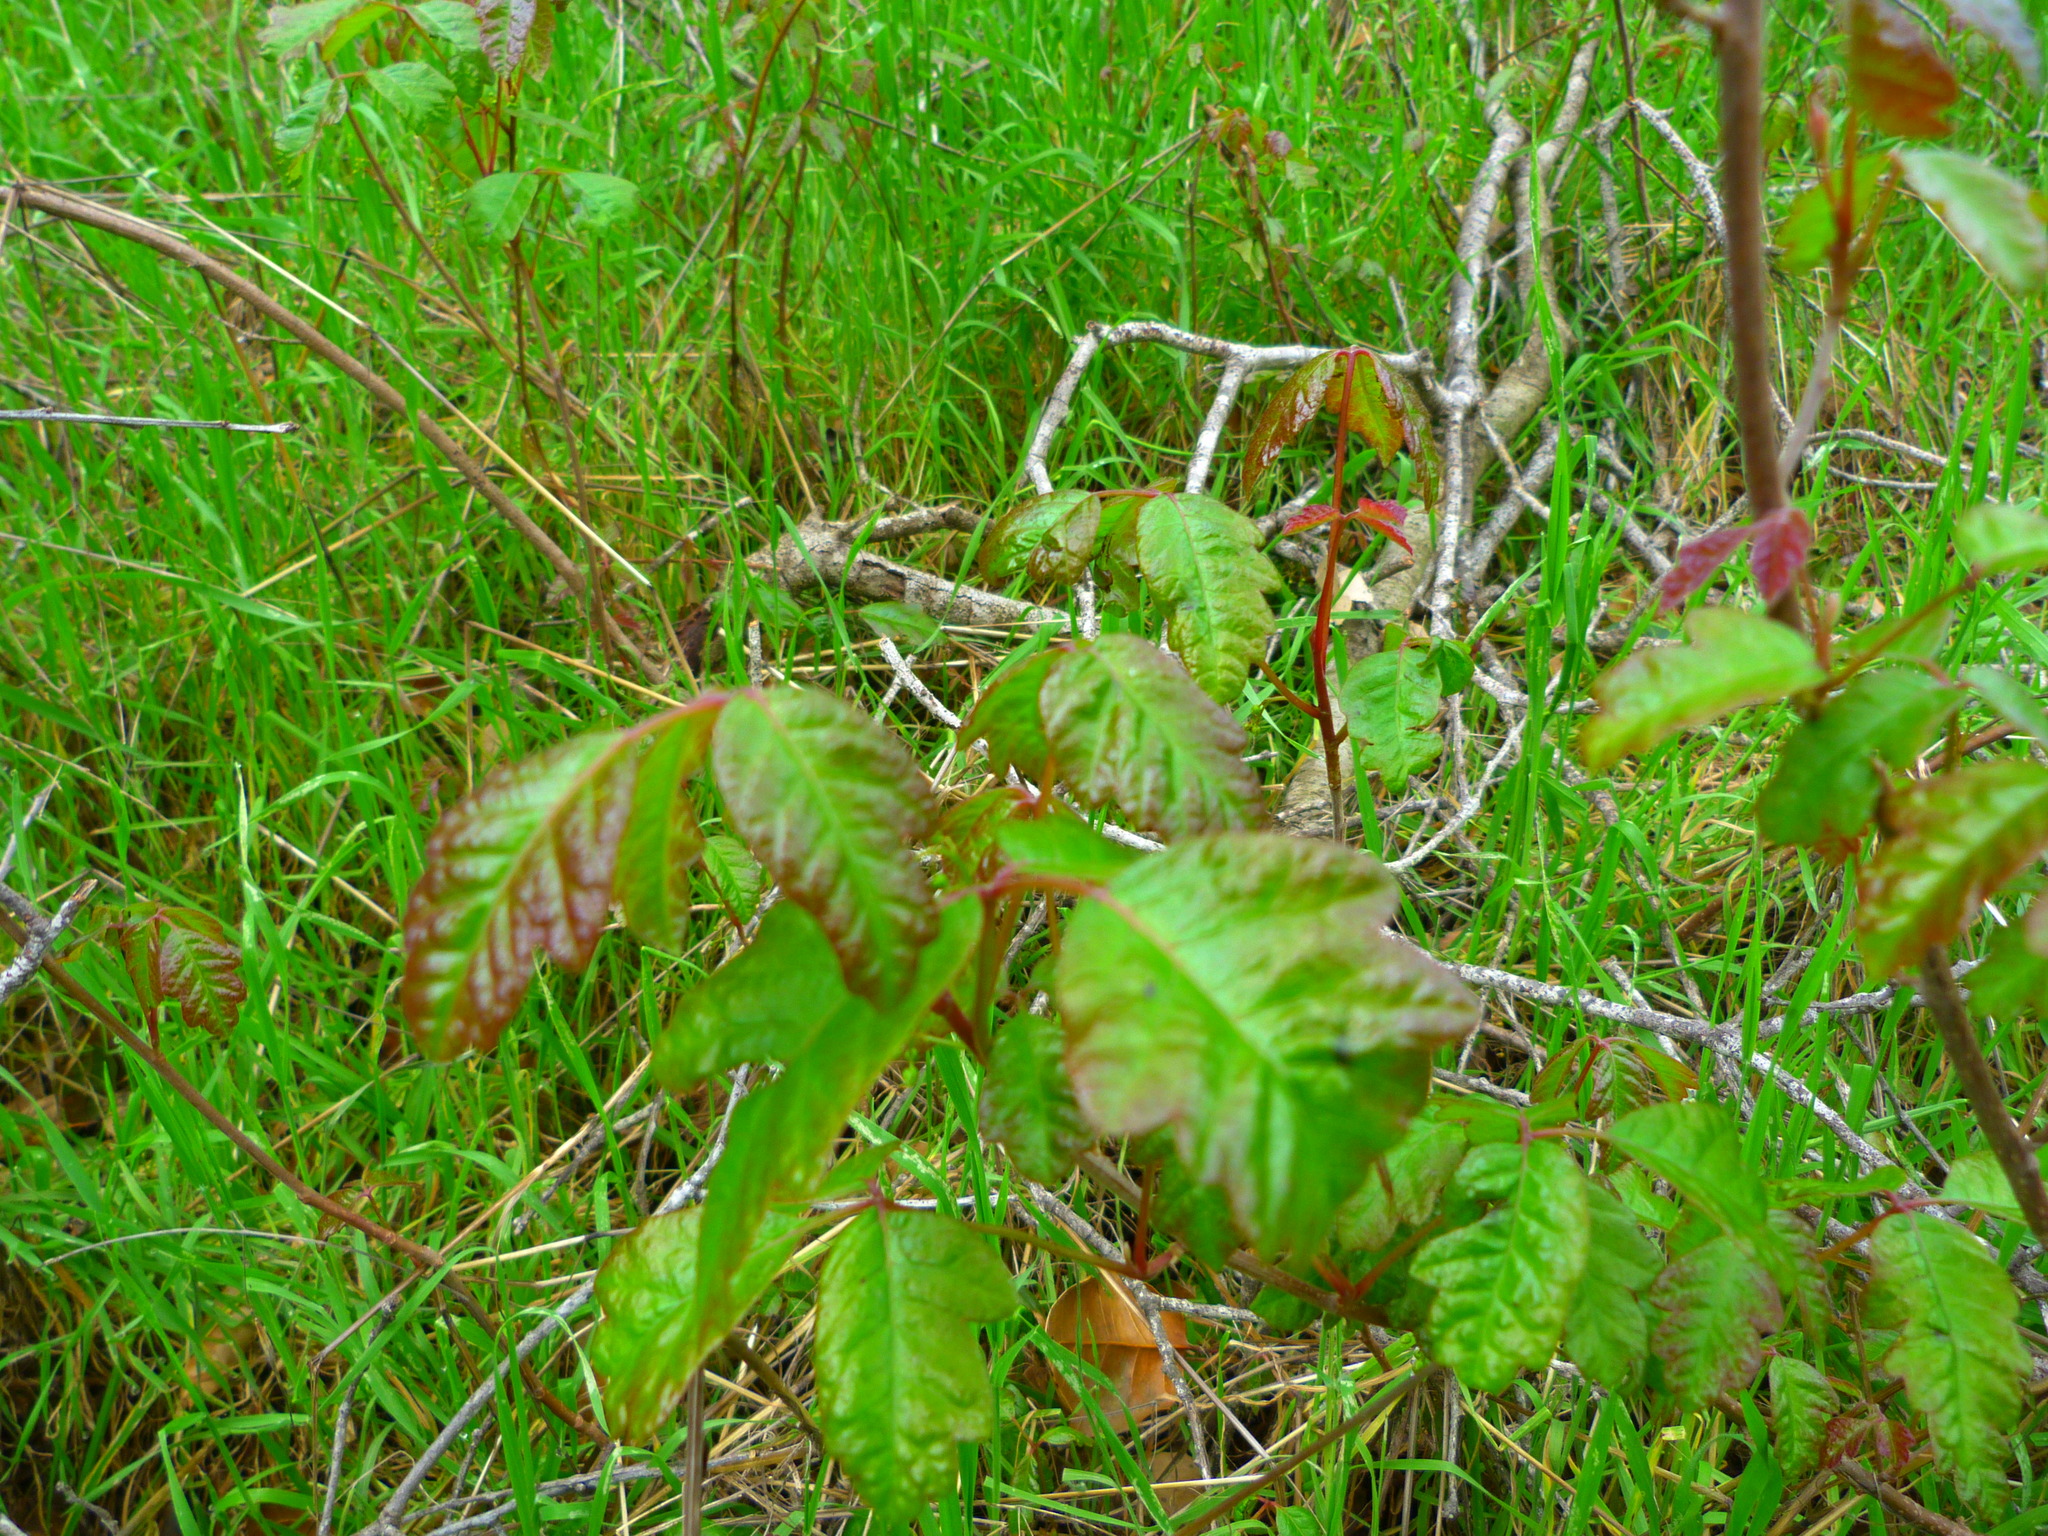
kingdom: Plantae
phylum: Tracheophyta
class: Magnoliopsida
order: Sapindales
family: Anacardiaceae
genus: Toxicodendron
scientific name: Toxicodendron diversilobum
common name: Pacific poison-oak
